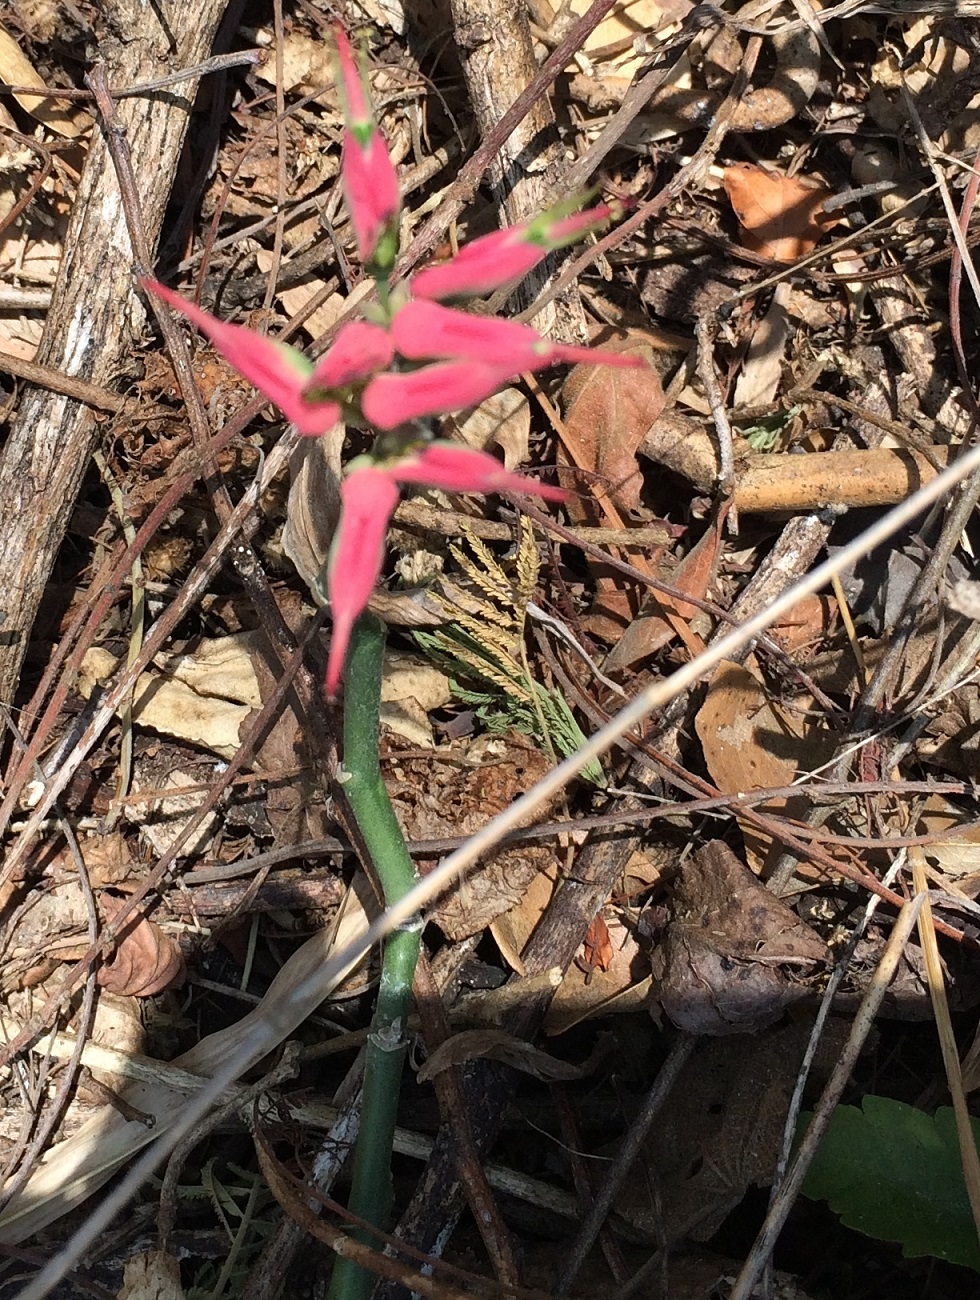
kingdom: Plantae
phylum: Tracheophyta
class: Magnoliopsida
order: Malpighiales
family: Euphorbiaceae
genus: Euphorbia
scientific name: Euphorbia tithymaloides
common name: Slipperplant
